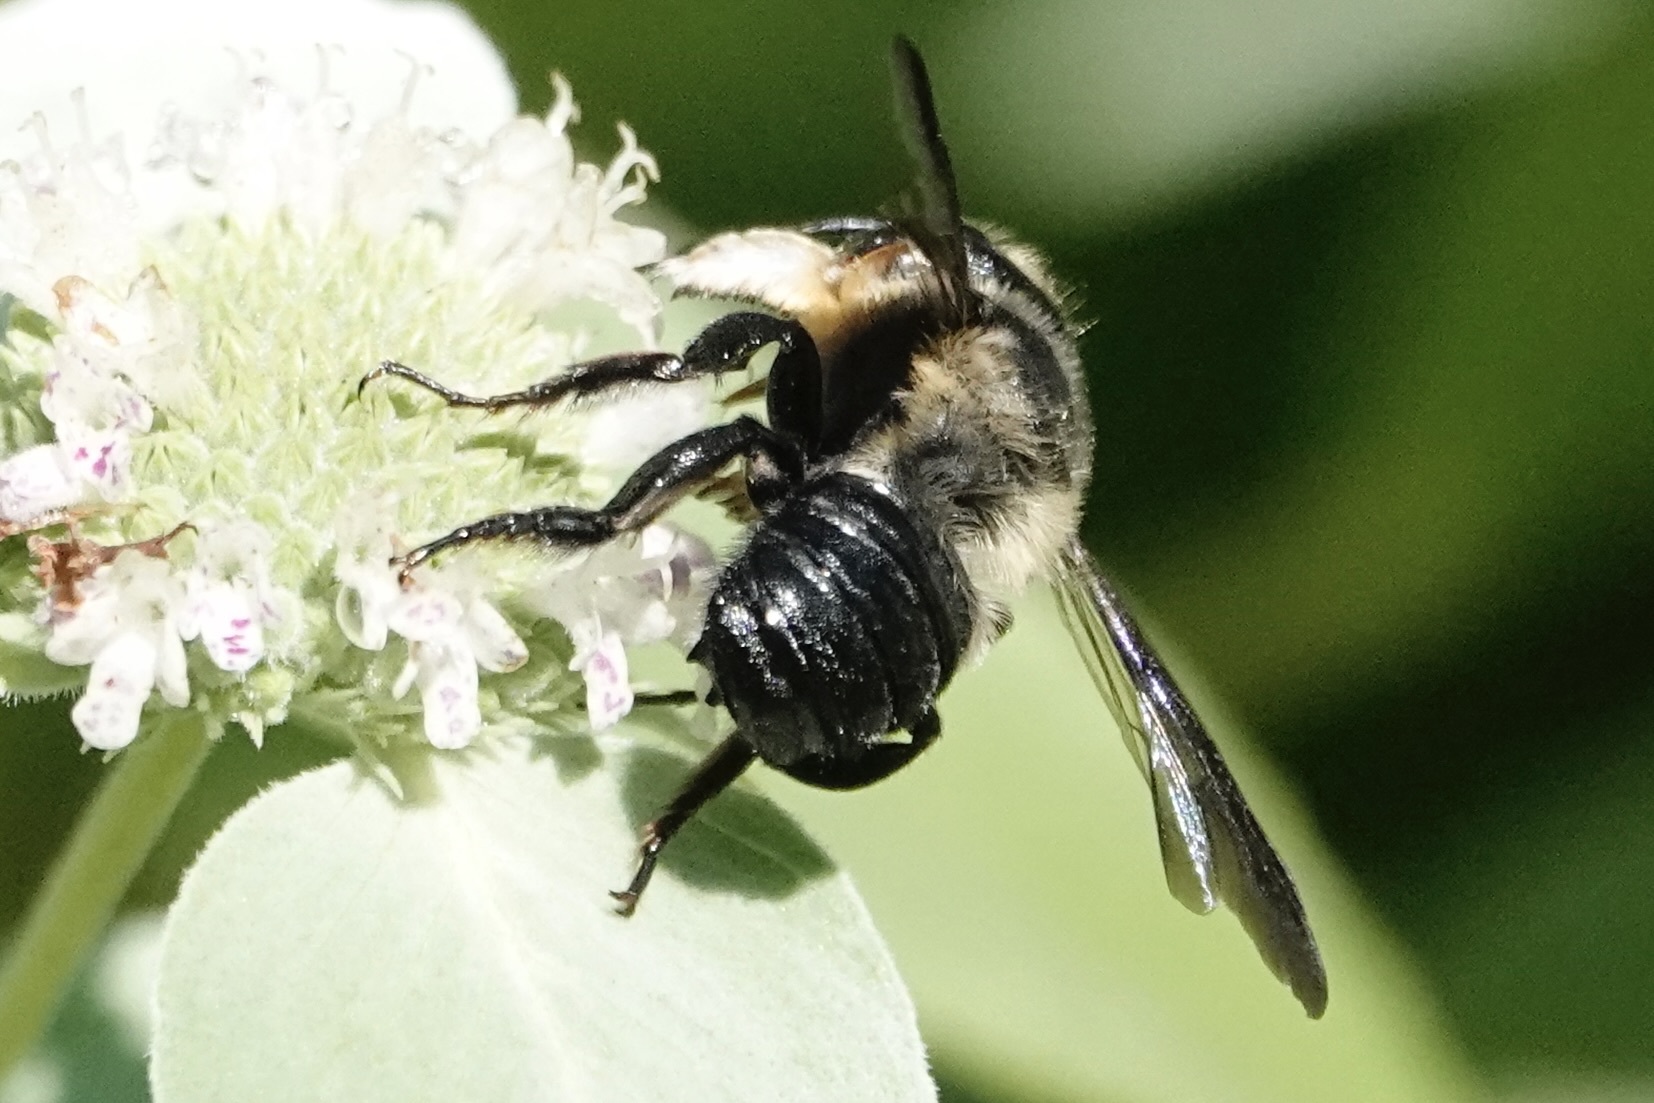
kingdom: Animalia
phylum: Arthropoda
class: Insecta
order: Hymenoptera
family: Megachilidae
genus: Megachile
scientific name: Megachile xylocopoides
